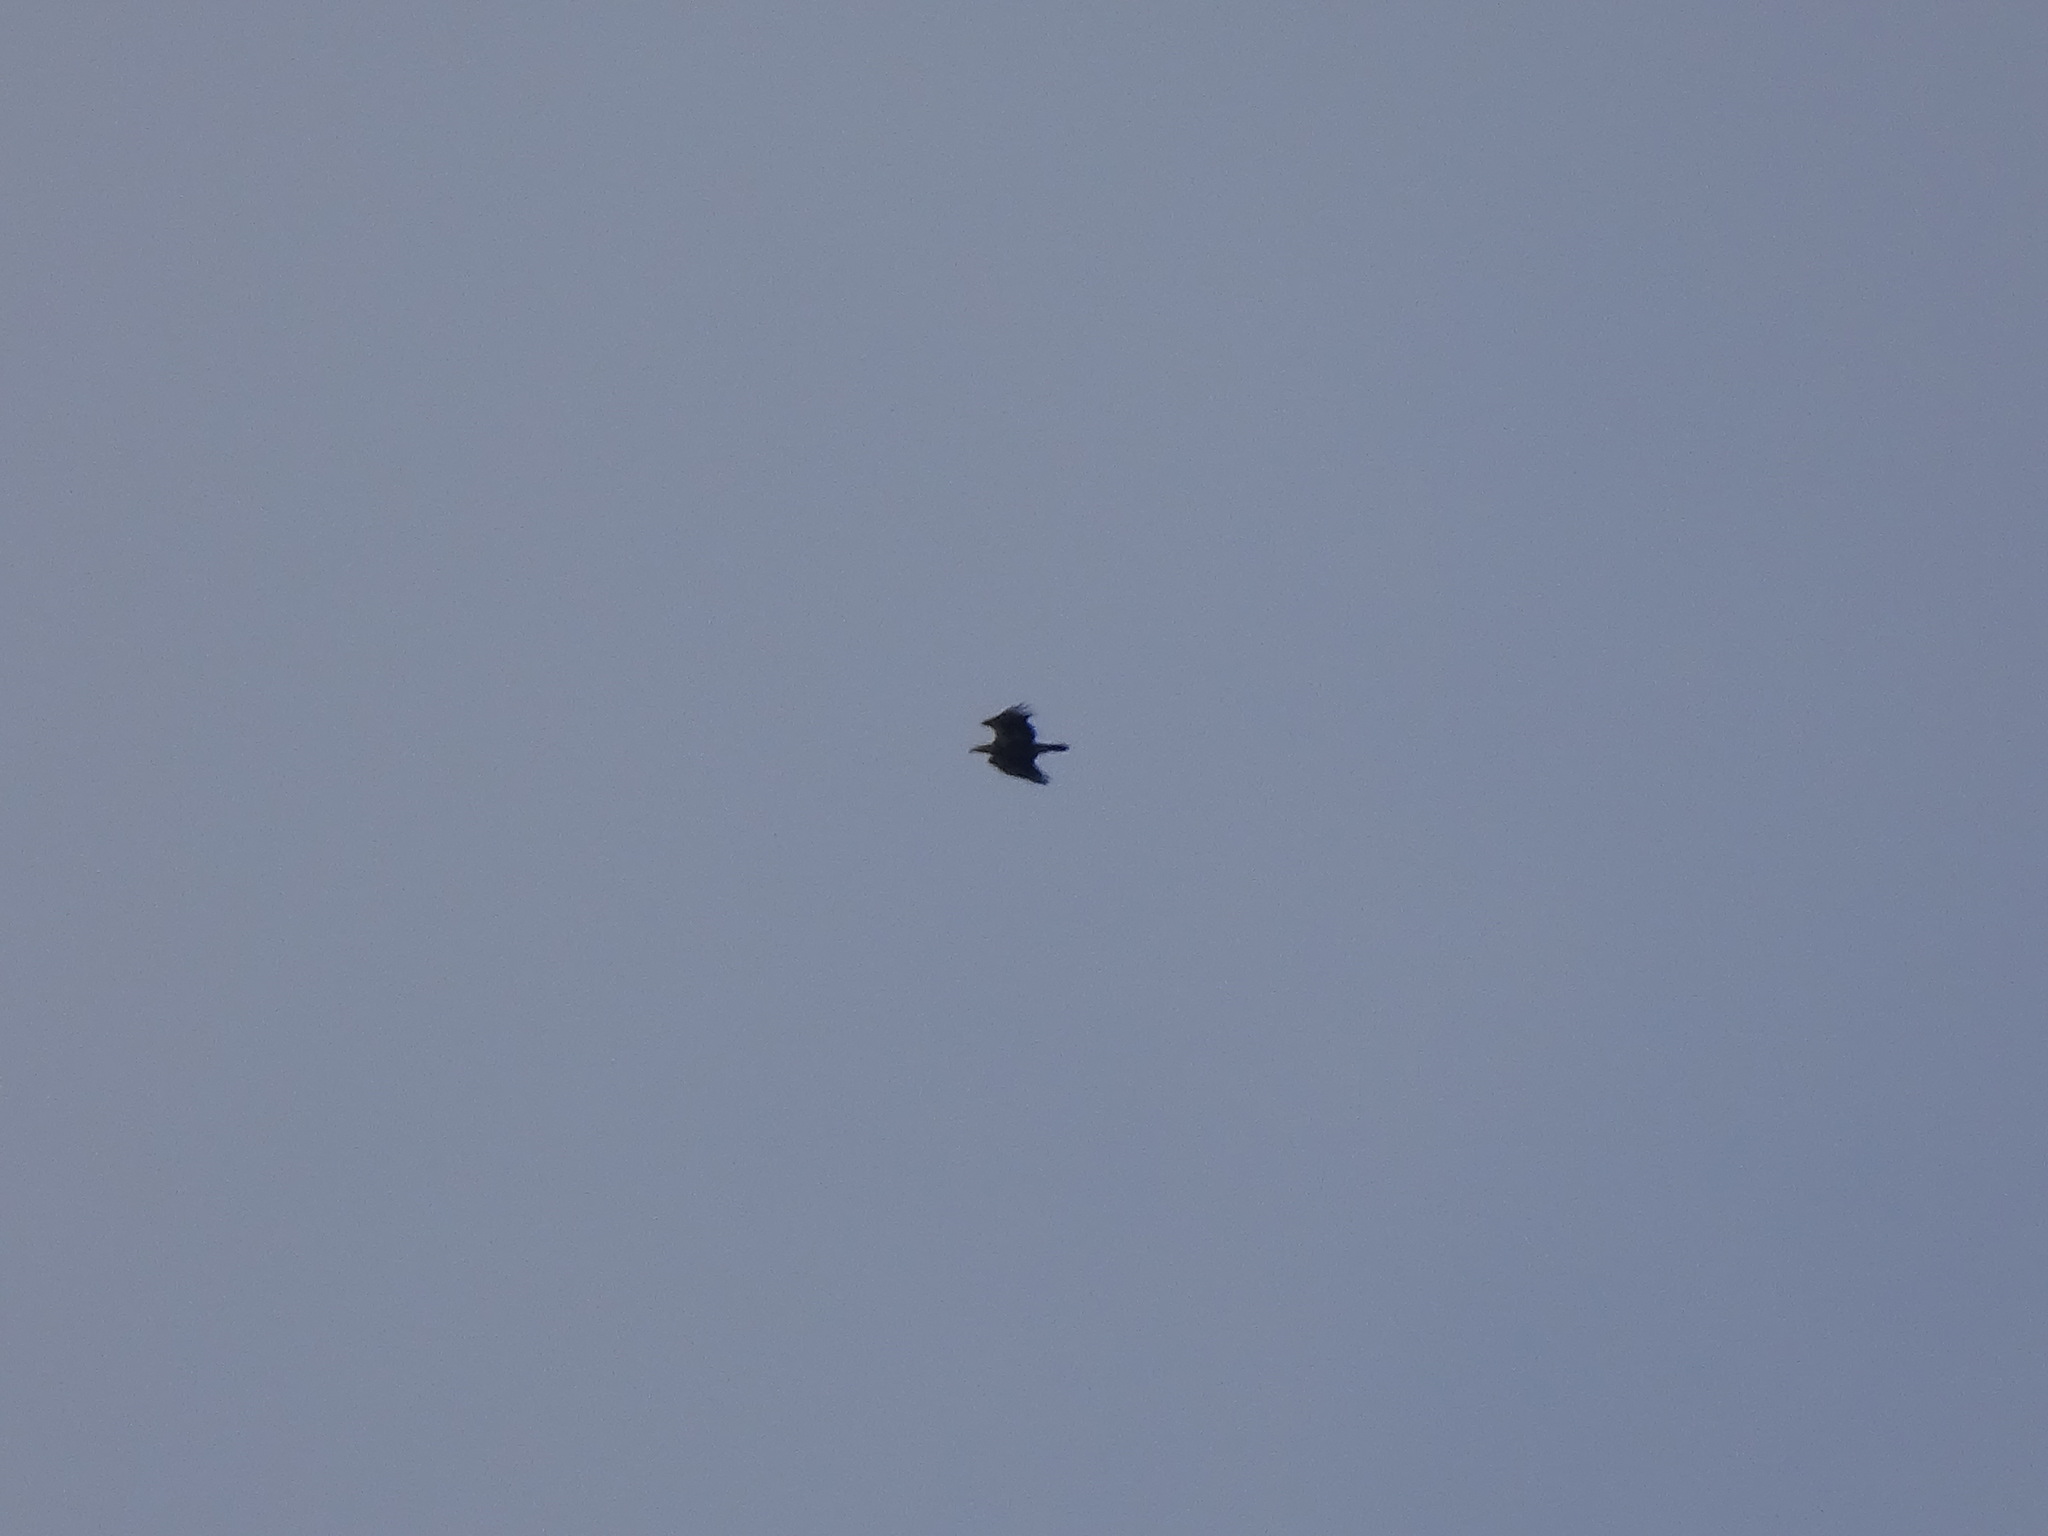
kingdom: Animalia
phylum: Chordata
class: Aves
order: Accipitriformes
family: Accipitridae
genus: Haliaeetus
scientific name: Haliaeetus leucocephalus
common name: Bald eagle
